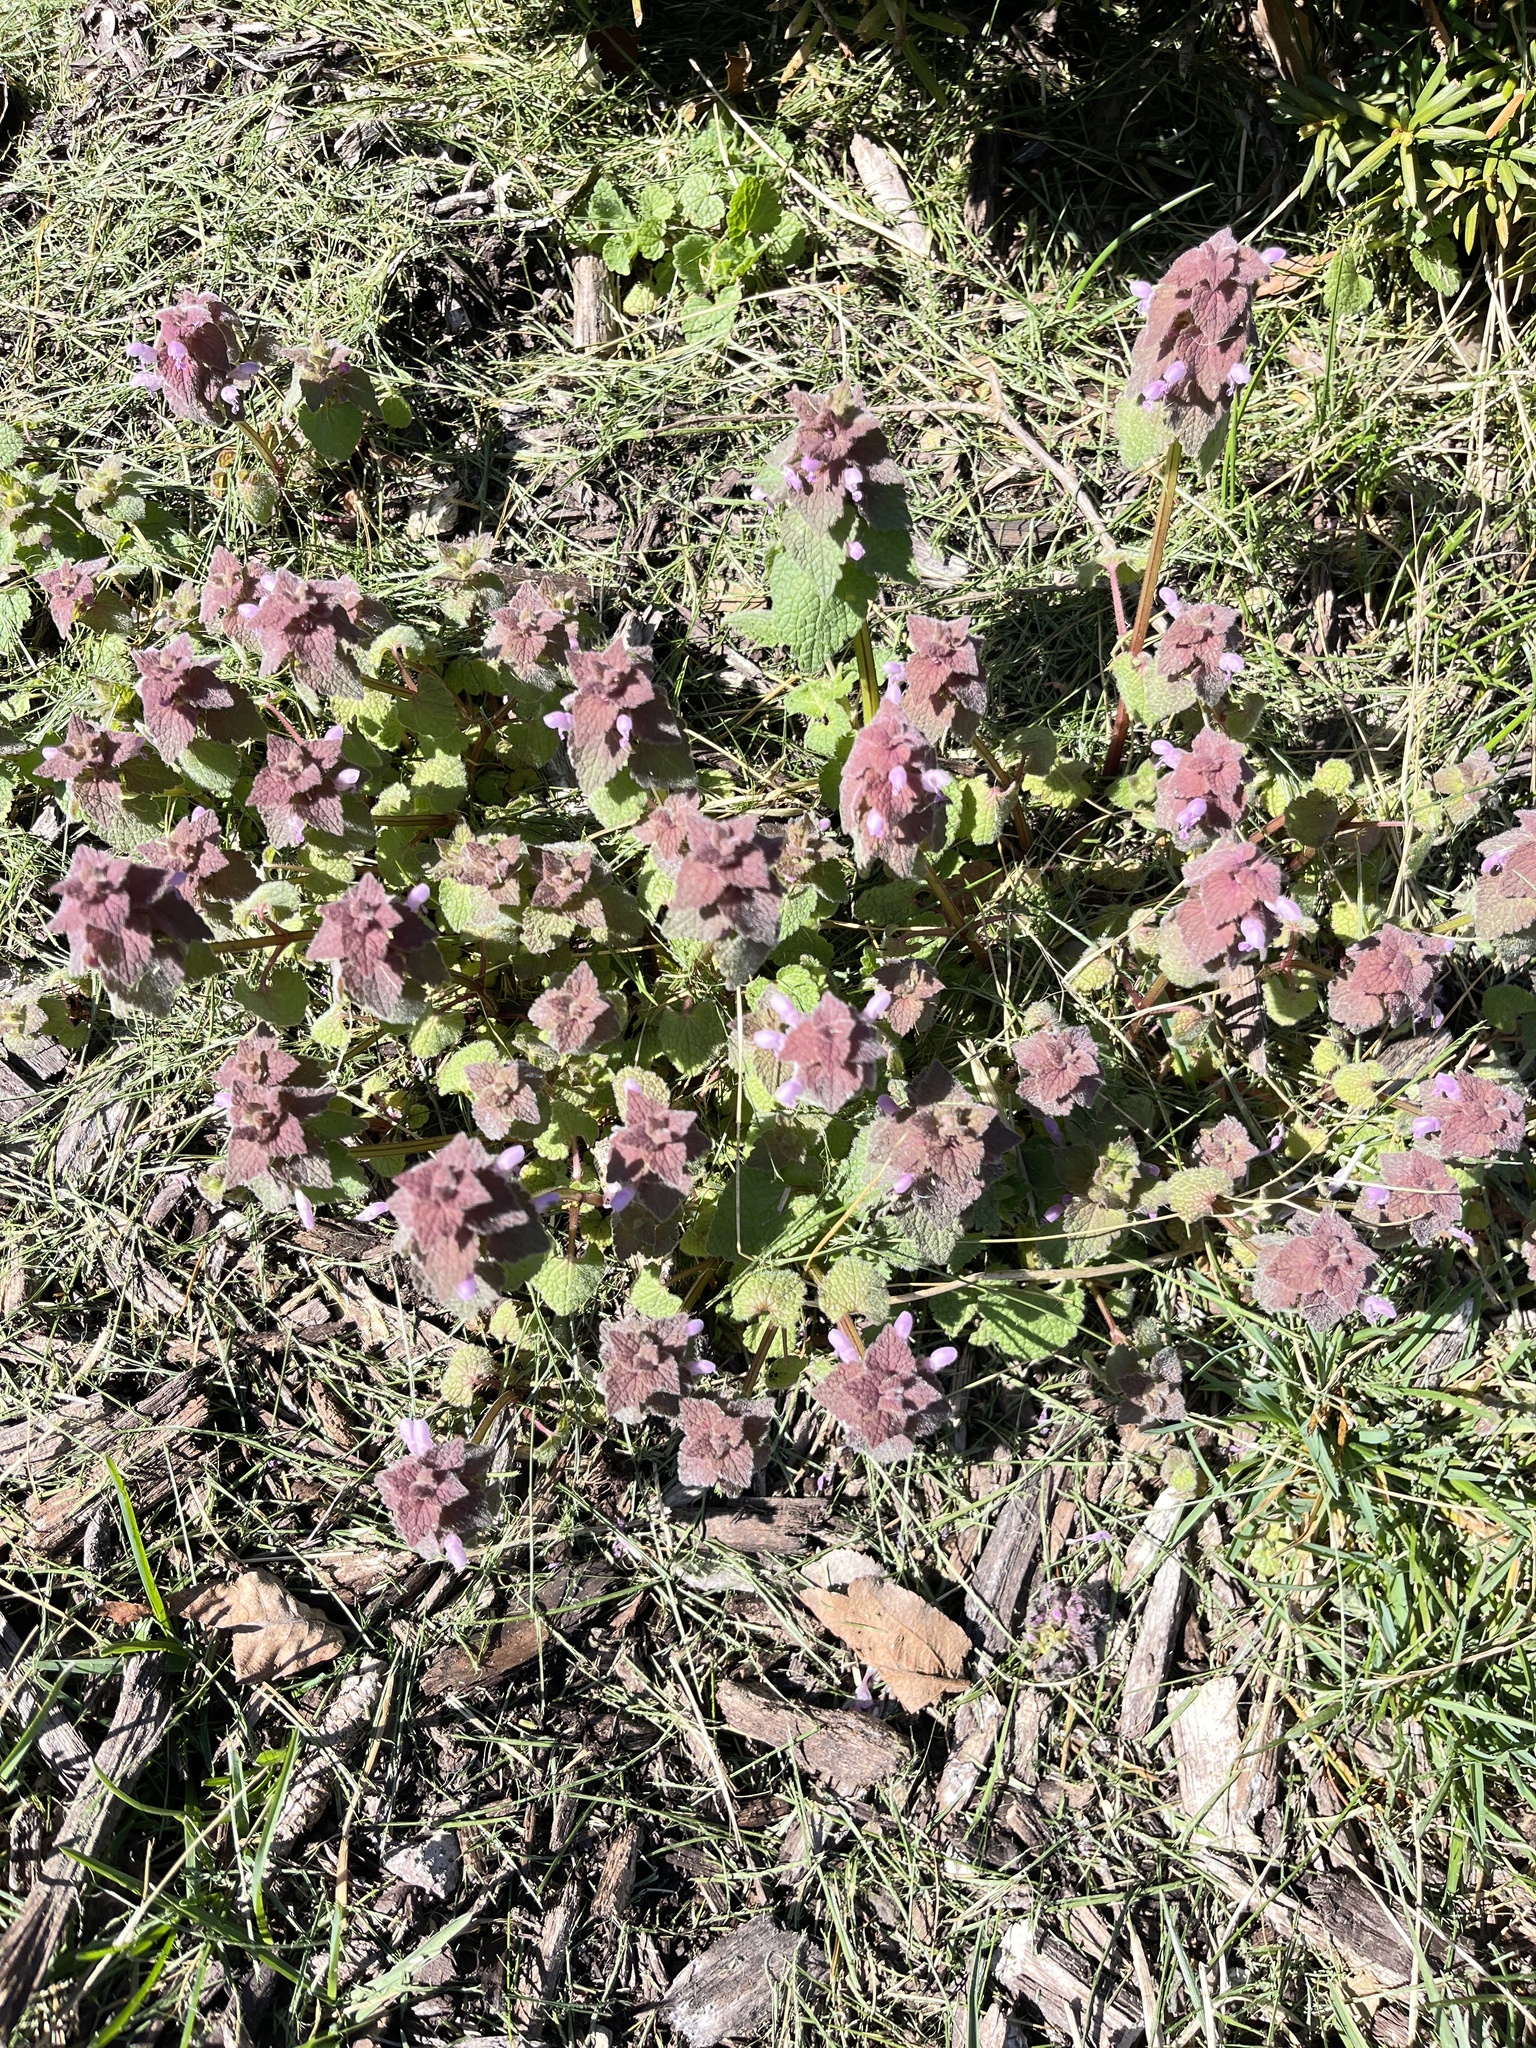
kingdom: Plantae
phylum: Tracheophyta
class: Magnoliopsida
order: Lamiales
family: Lamiaceae
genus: Lamium
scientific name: Lamium purpureum
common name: Red dead-nettle
